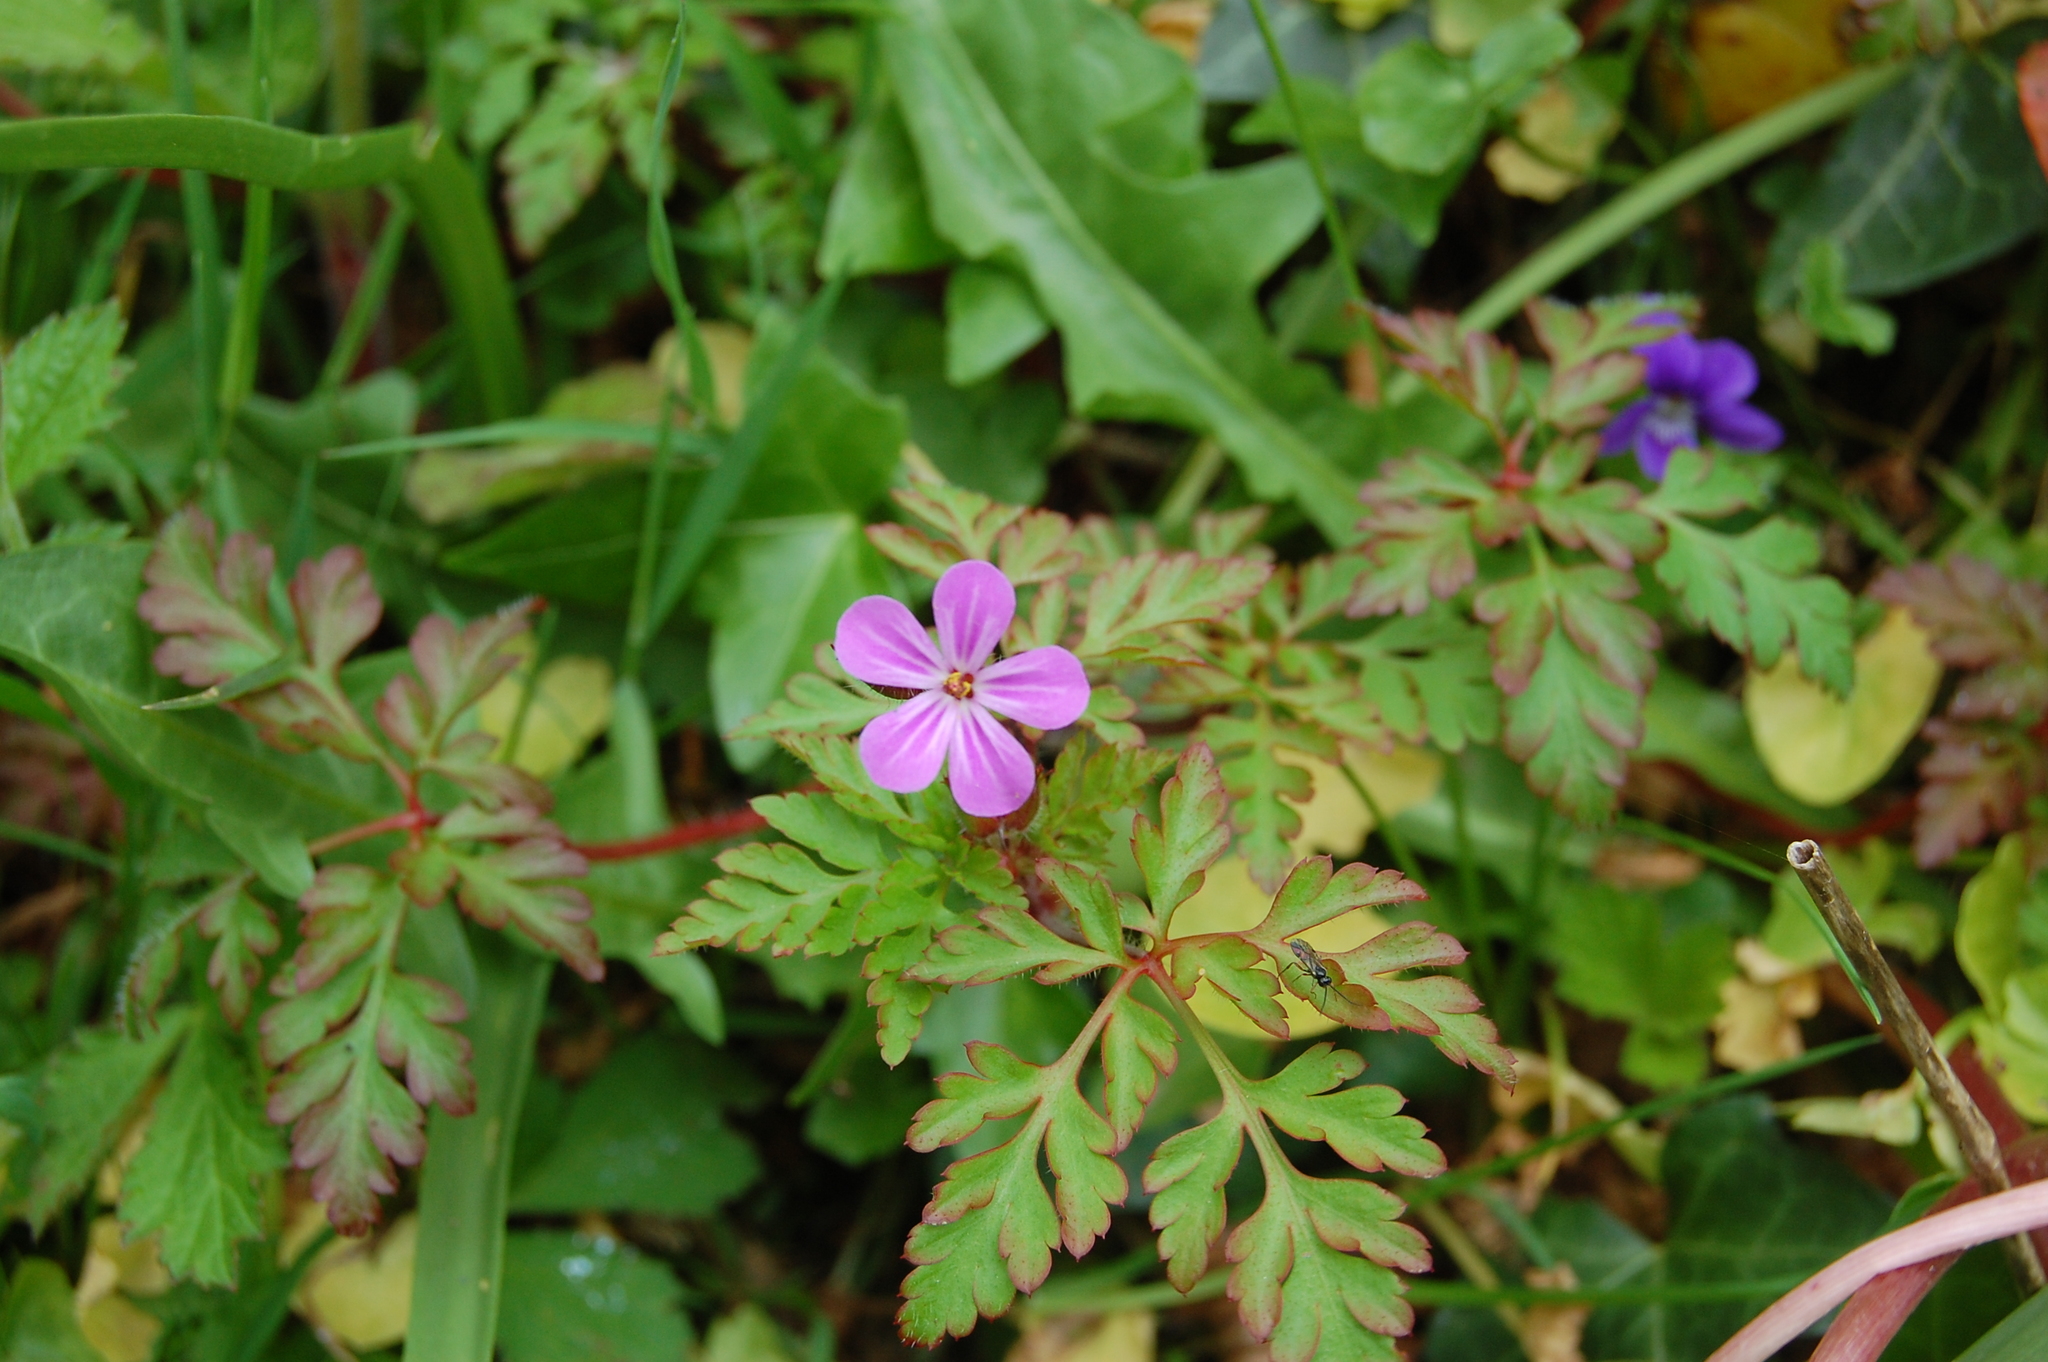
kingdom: Plantae
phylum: Tracheophyta
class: Magnoliopsida
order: Geraniales
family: Geraniaceae
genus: Geranium
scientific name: Geranium robertianum
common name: Herb-robert
